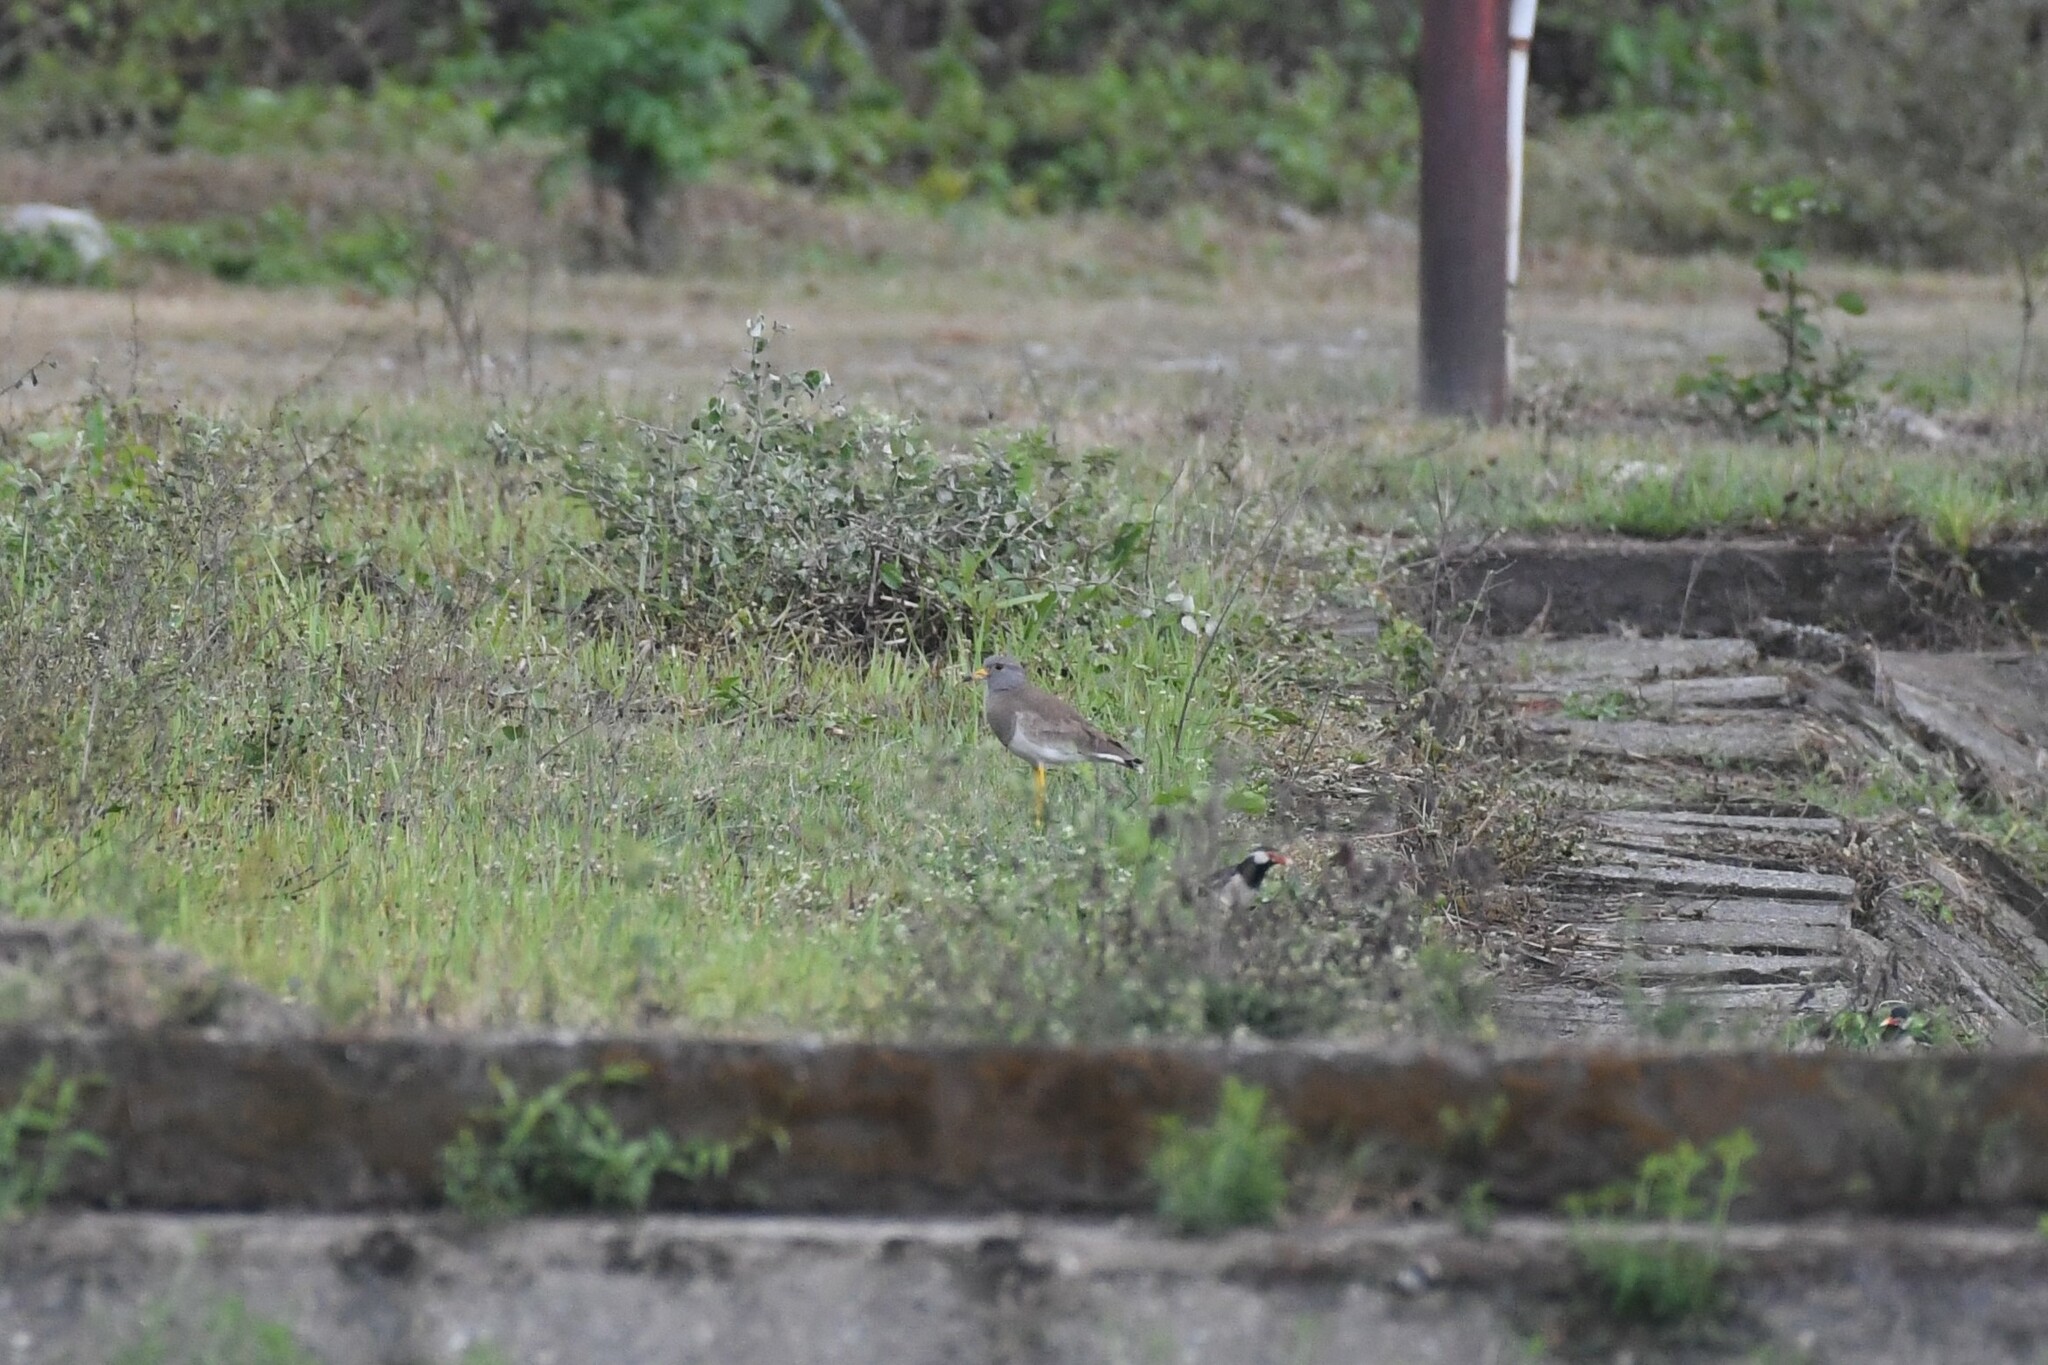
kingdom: Animalia
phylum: Chordata
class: Aves
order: Charadriiformes
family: Charadriidae
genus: Vanellus
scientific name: Vanellus cinereus
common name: Grey-headed lapwing
